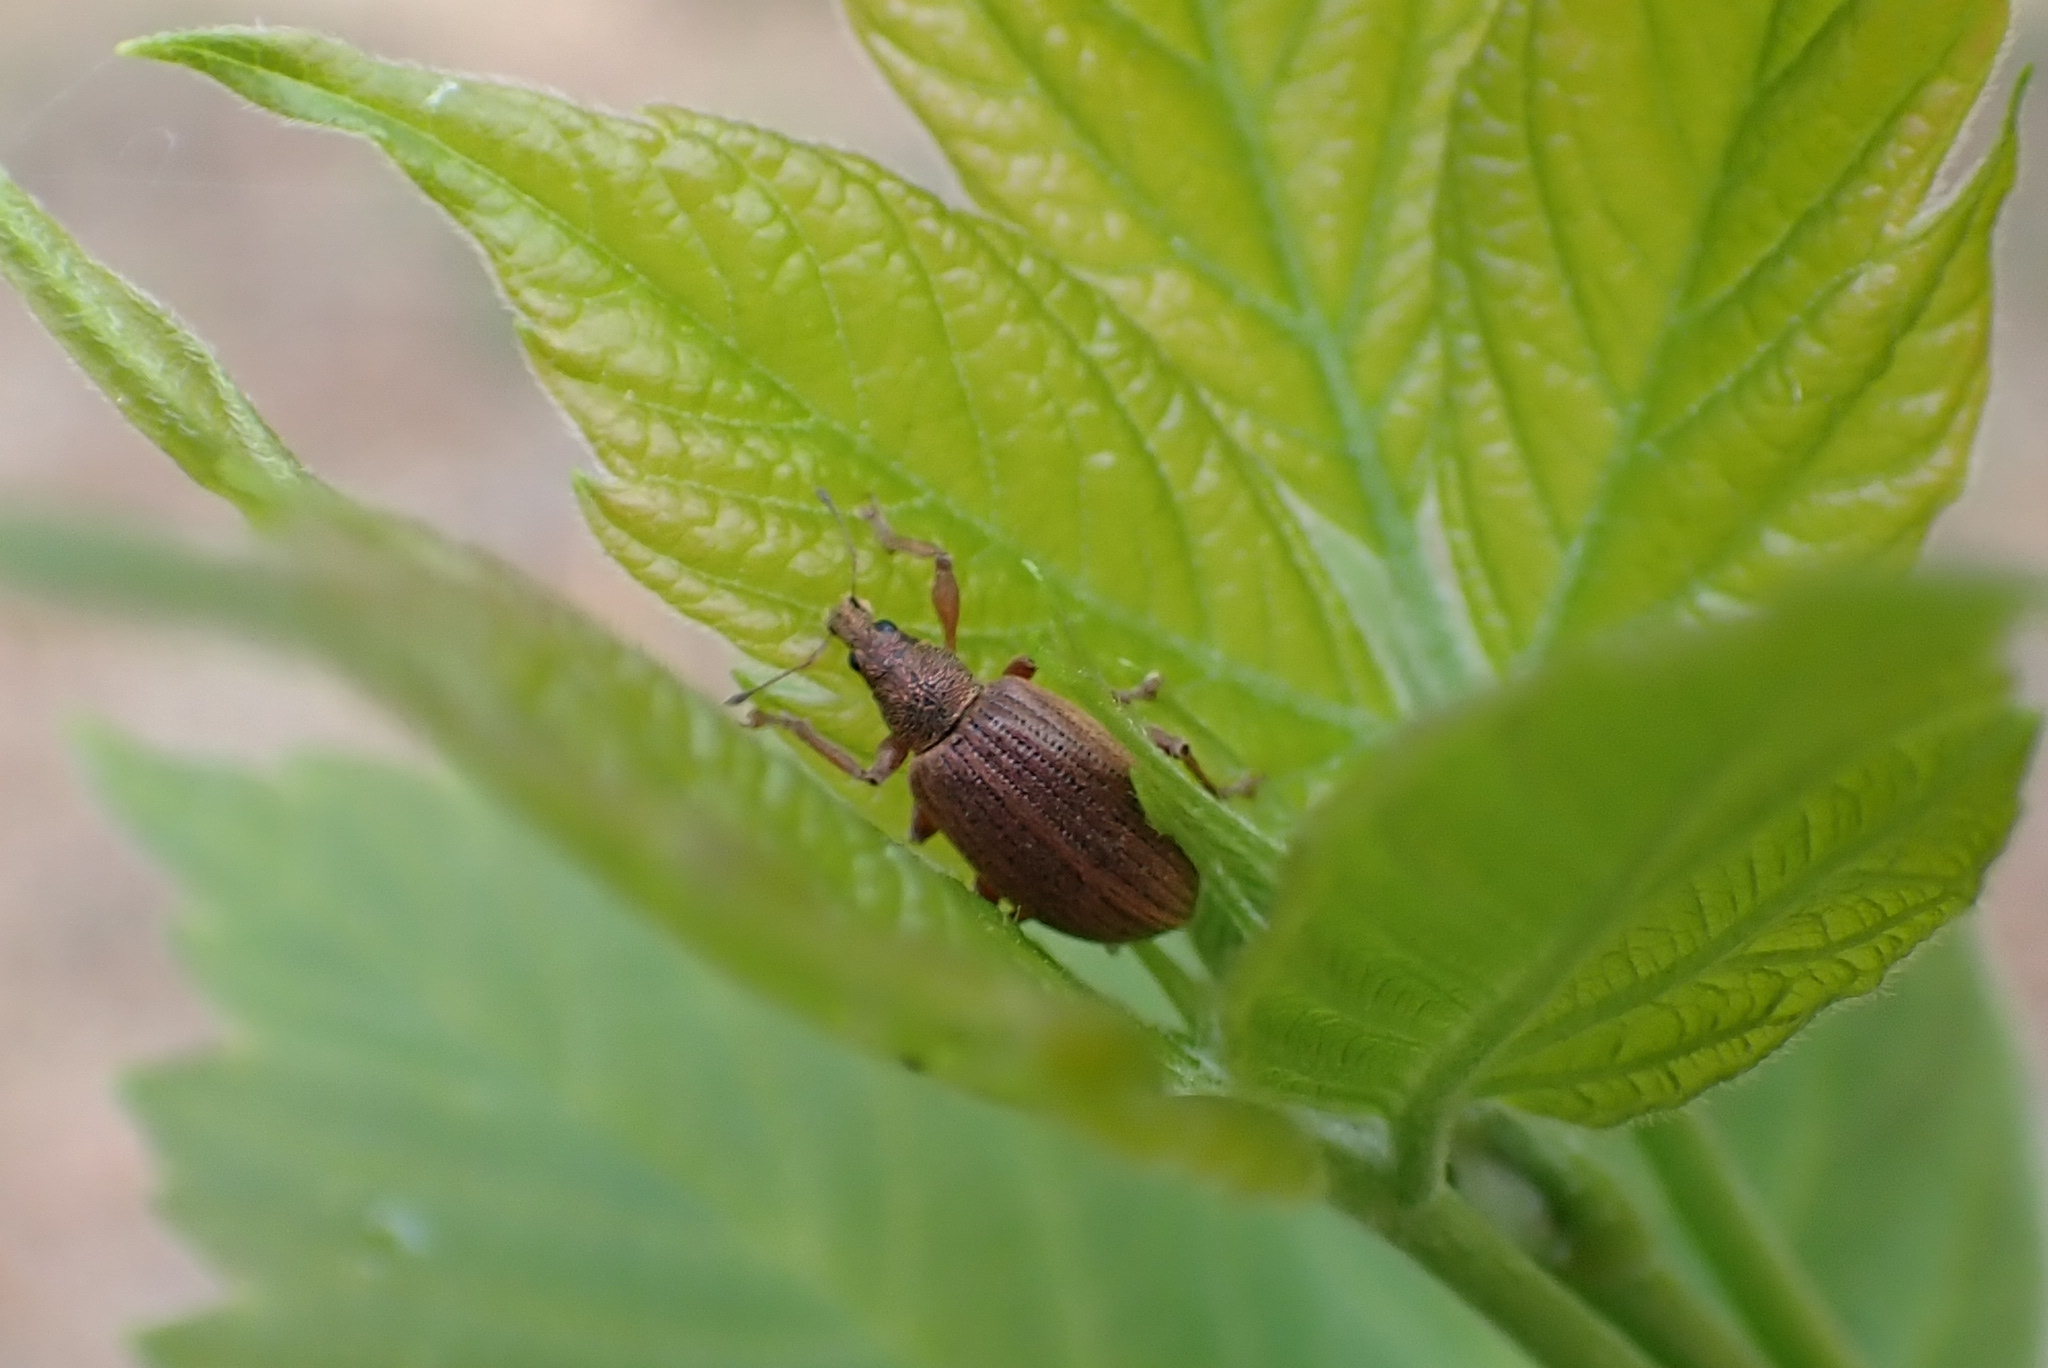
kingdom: Animalia
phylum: Arthropoda
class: Insecta
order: Coleoptera
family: Curculionidae
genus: Polydrusus
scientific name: Polydrusus mollis
